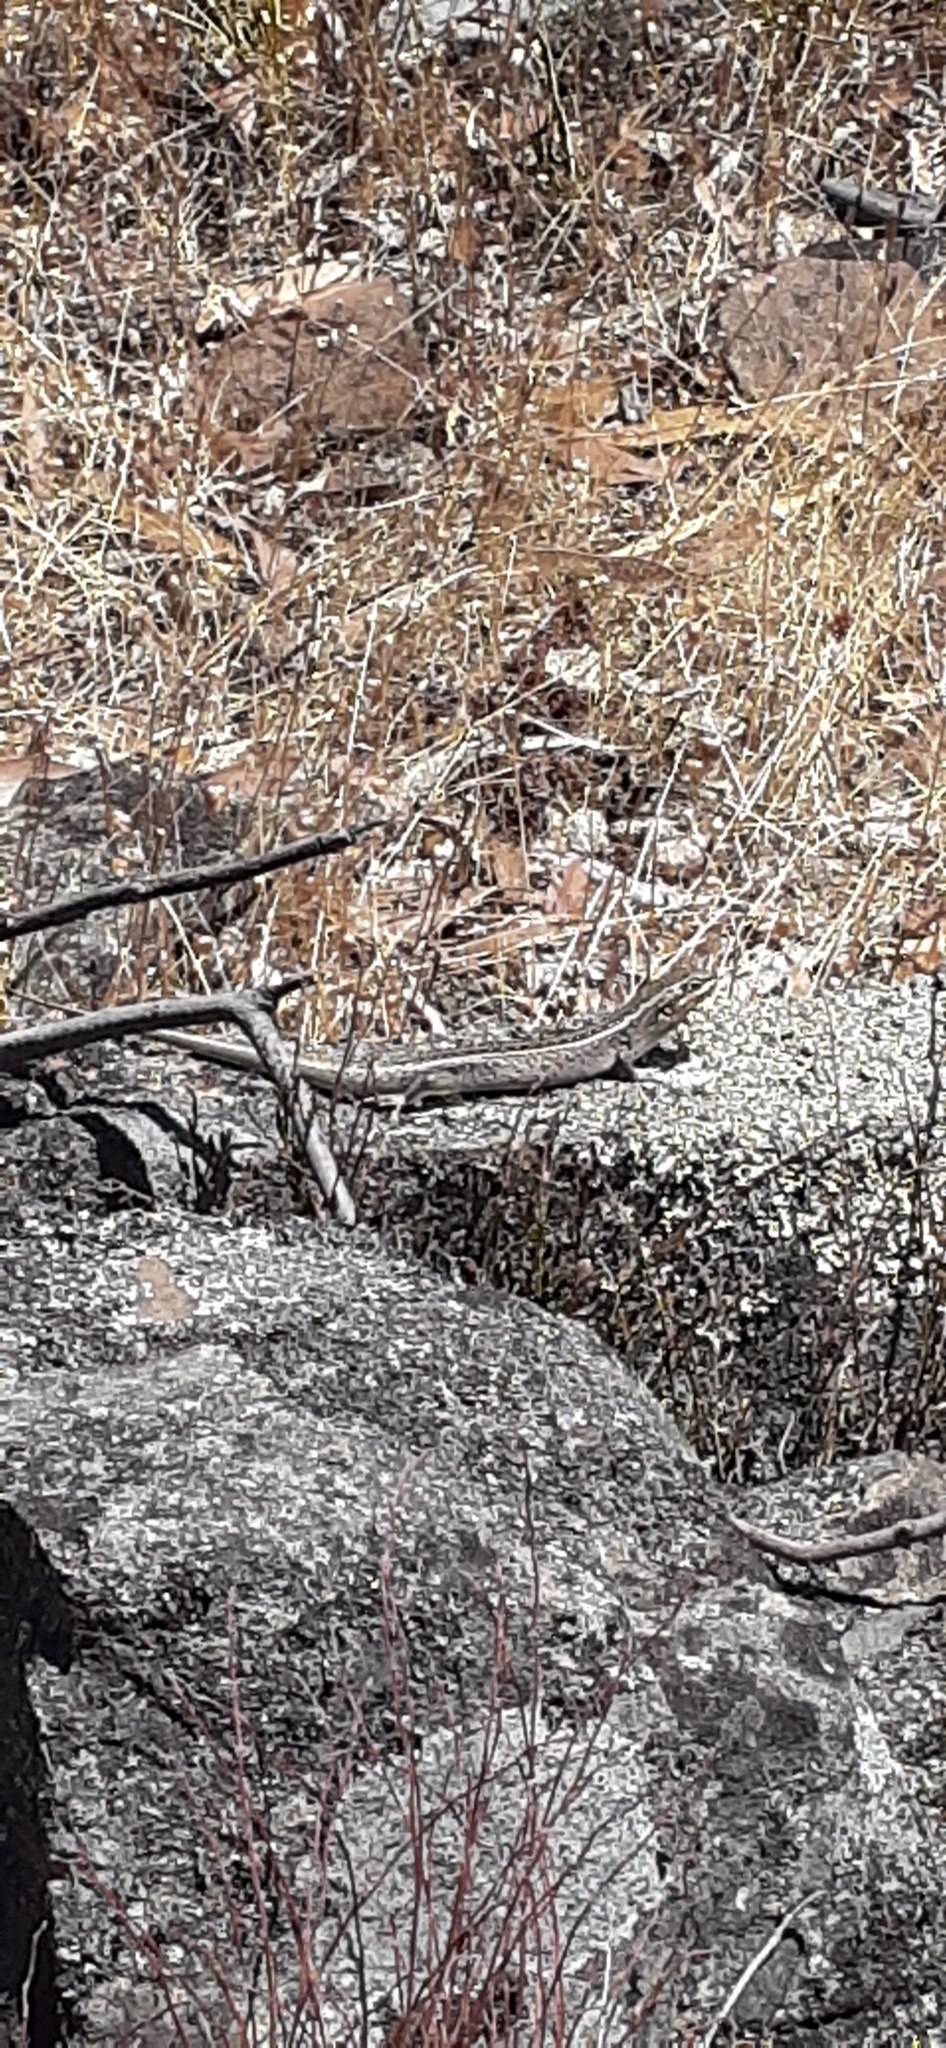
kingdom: Animalia
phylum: Chordata
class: Squamata
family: Scincidae
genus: Liopholis
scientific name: Liopholis whitii
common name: White's rock-skink
